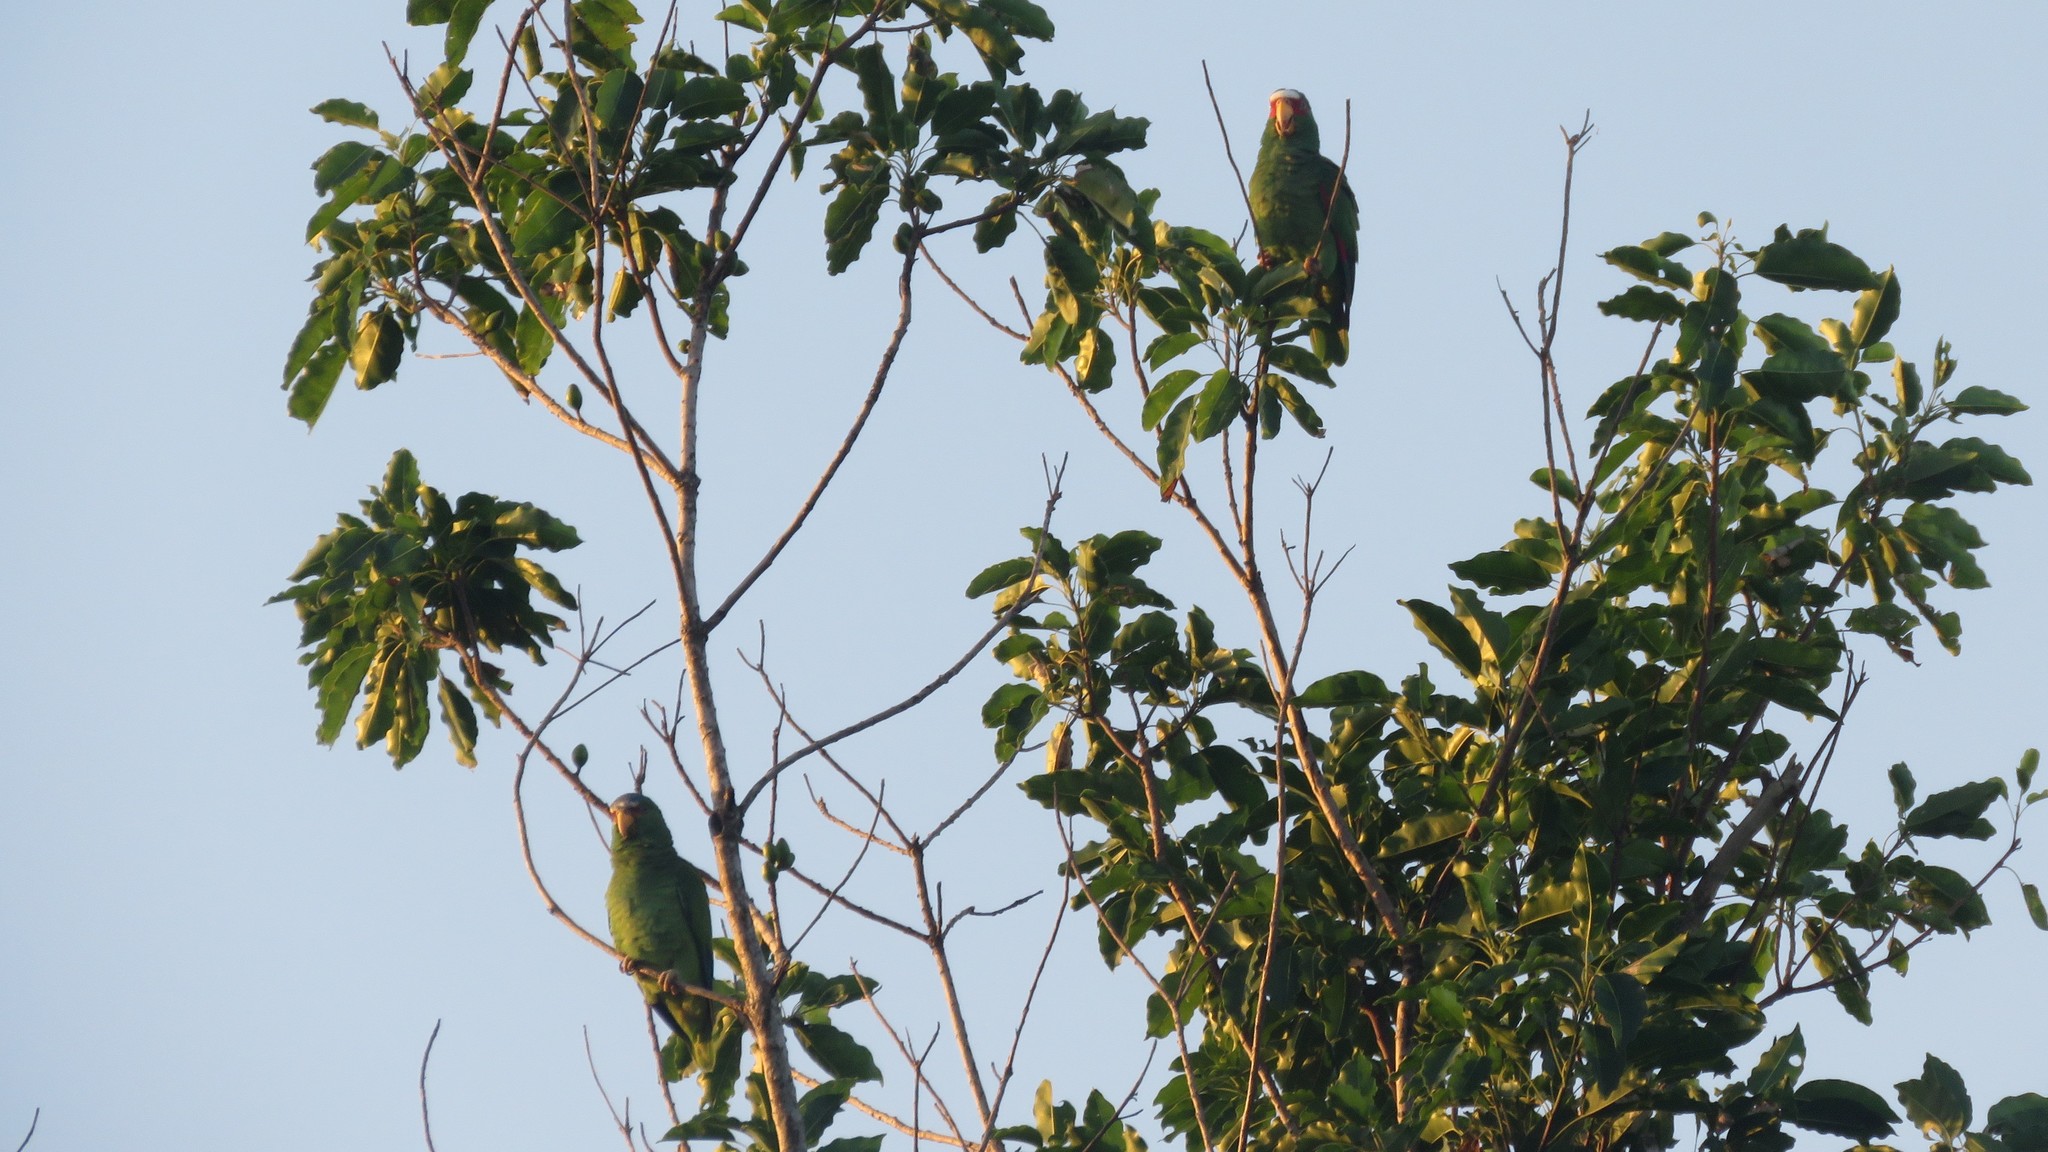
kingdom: Animalia
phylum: Chordata
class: Aves
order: Psittaciformes
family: Psittacidae
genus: Amazona
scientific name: Amazona albifrons
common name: White-fronted amazon
